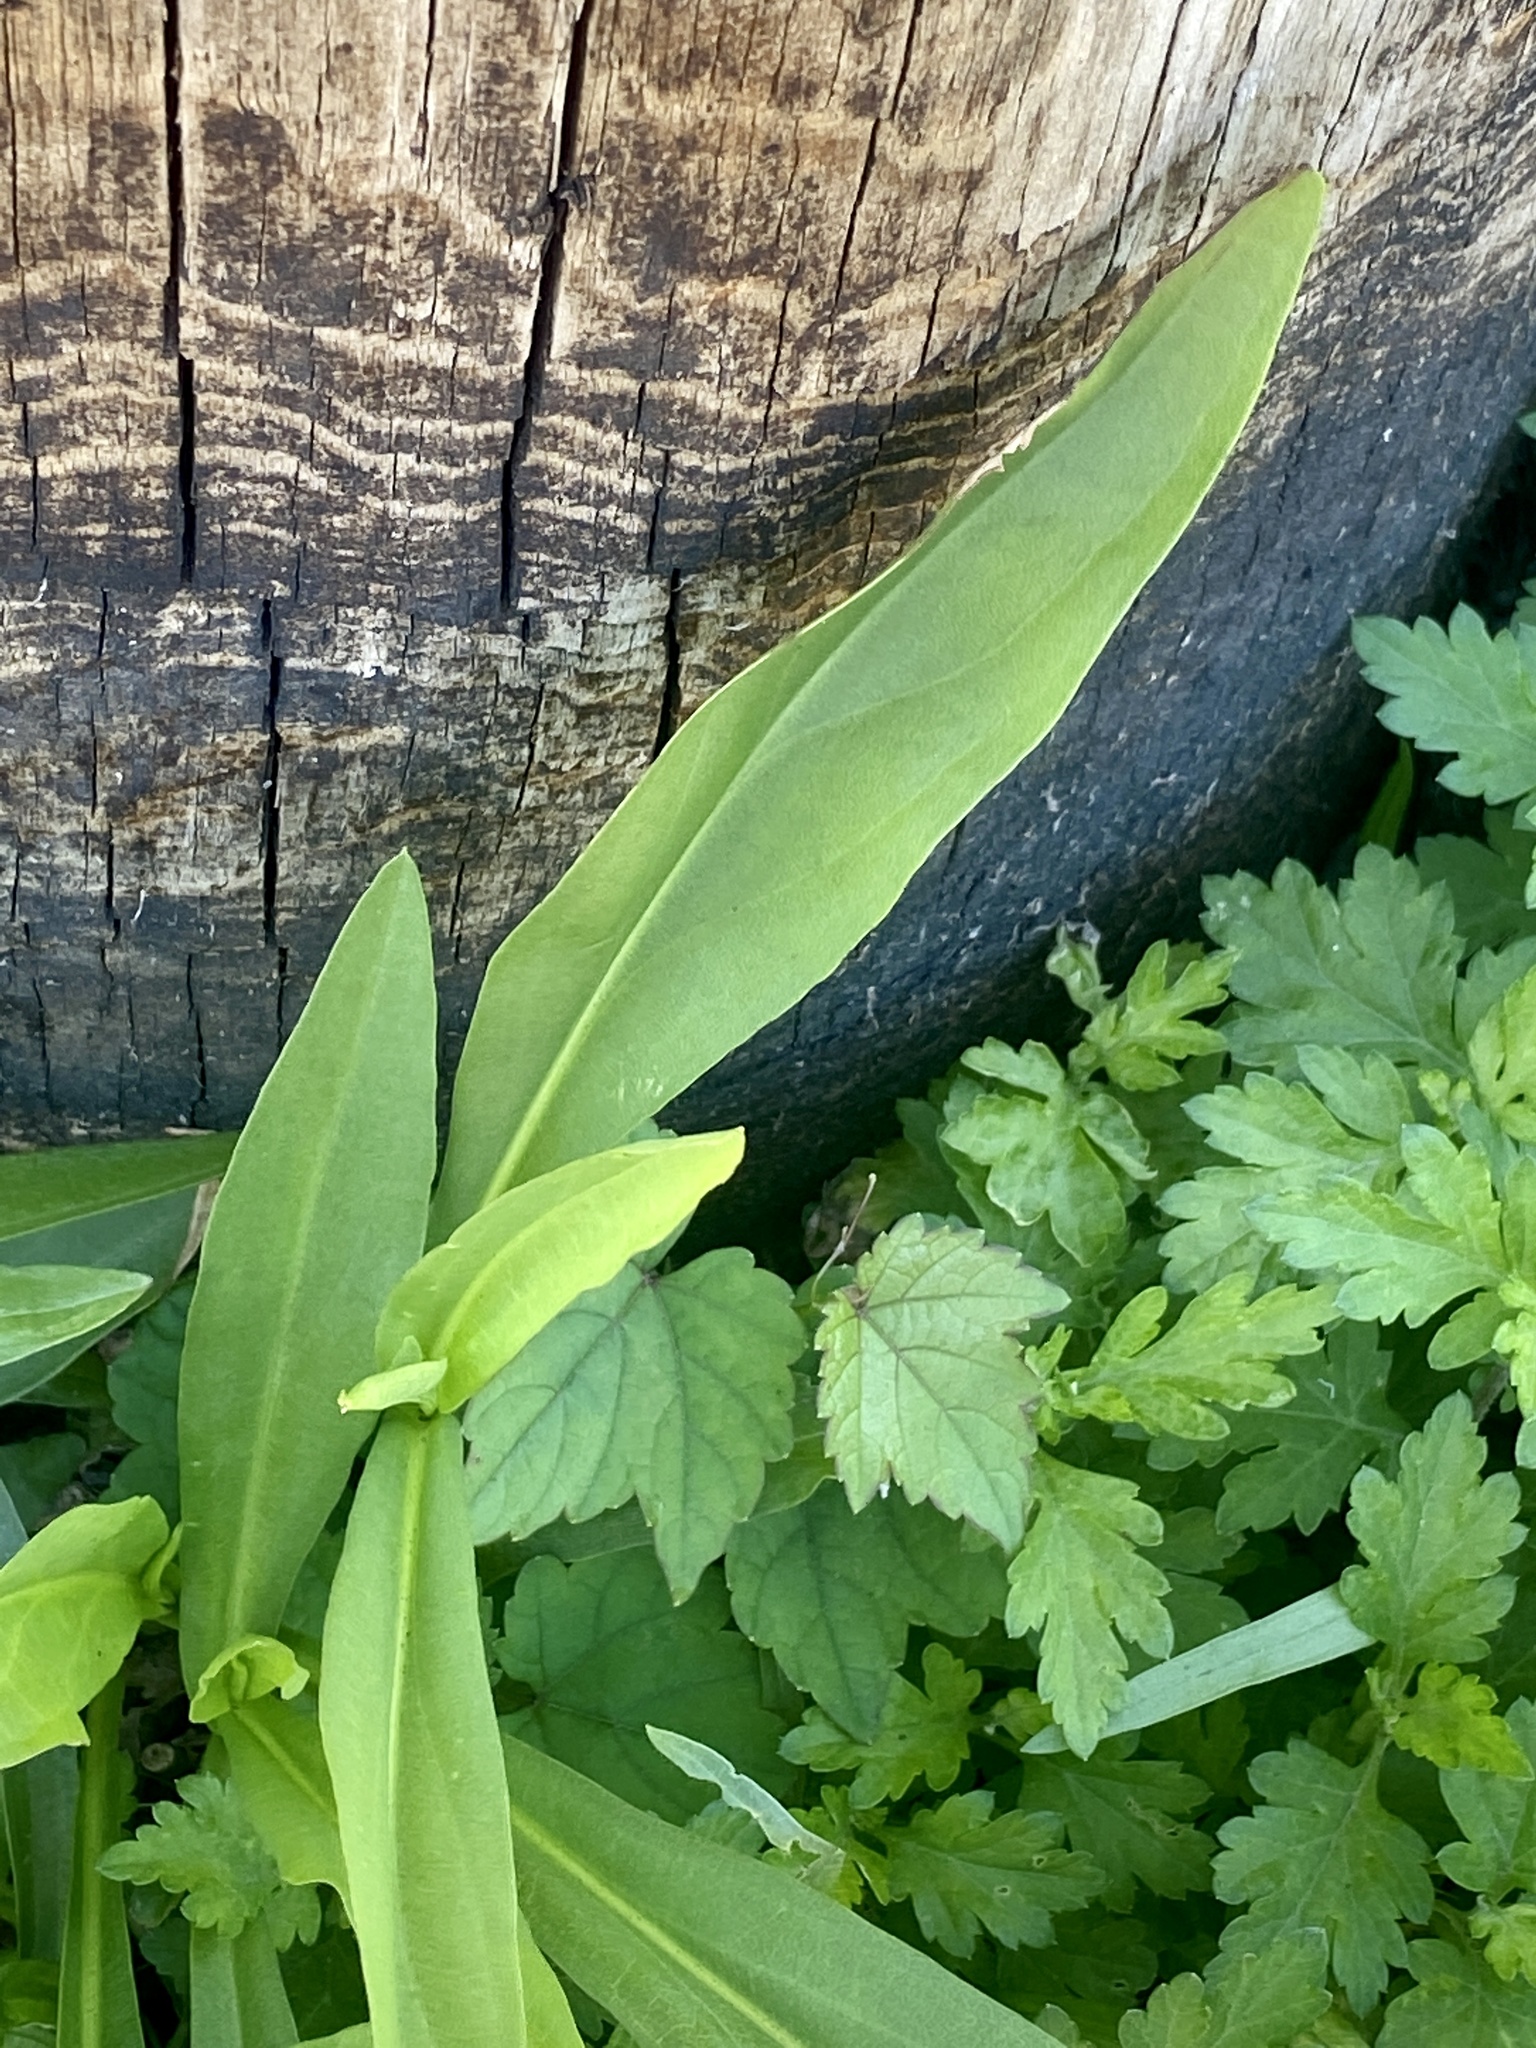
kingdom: Plantae
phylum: Tracheophyta
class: Magnoliopsida
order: Asterales
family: Asteraceae
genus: Solidago
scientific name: Solidago sempervirens
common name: Salt-marsh goldenrod
